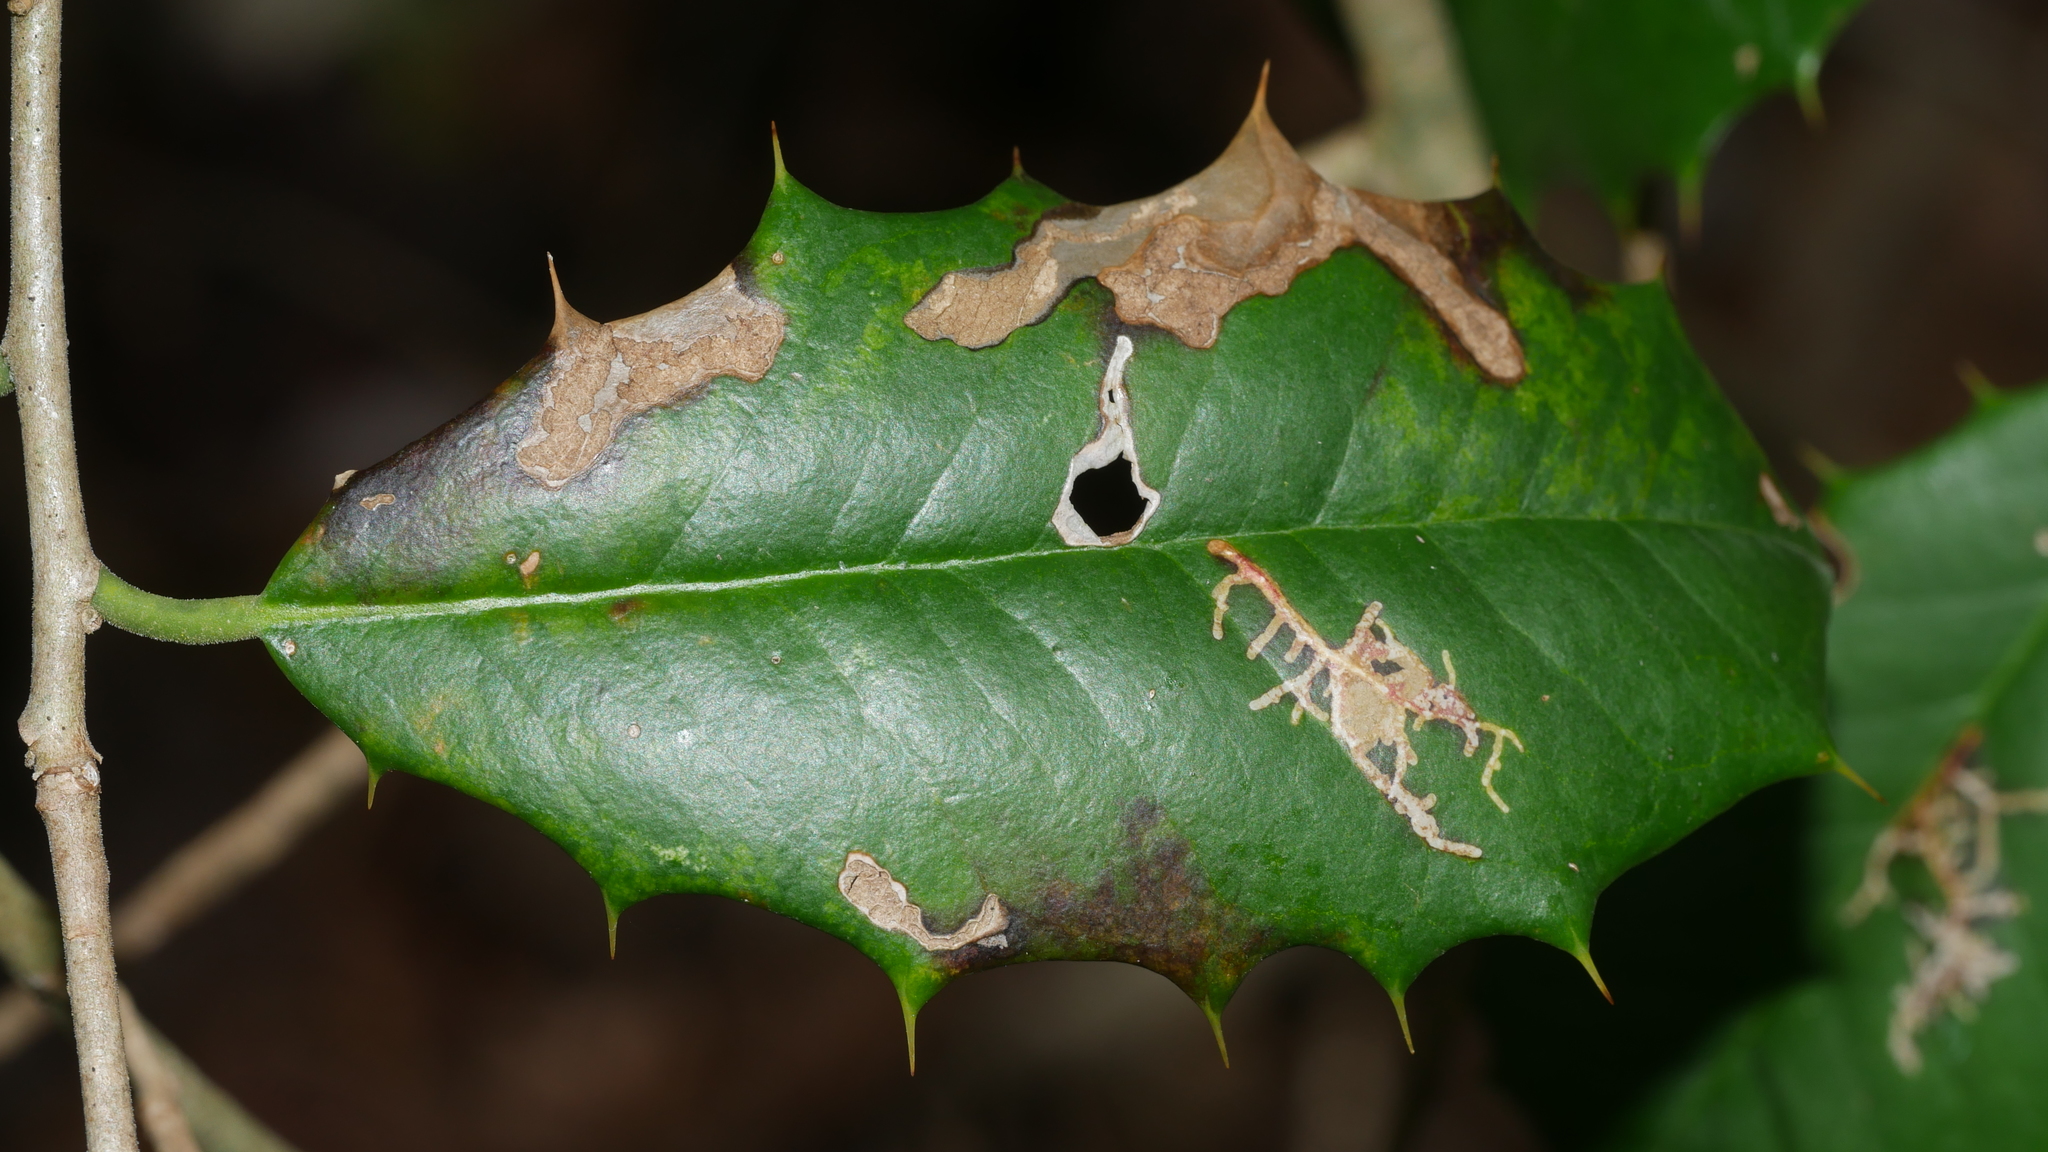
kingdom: Animalia
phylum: Arthropoda
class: Insecta
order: Lepidoptera
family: Tortricidae
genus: Rhopobota
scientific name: Rhopobota
